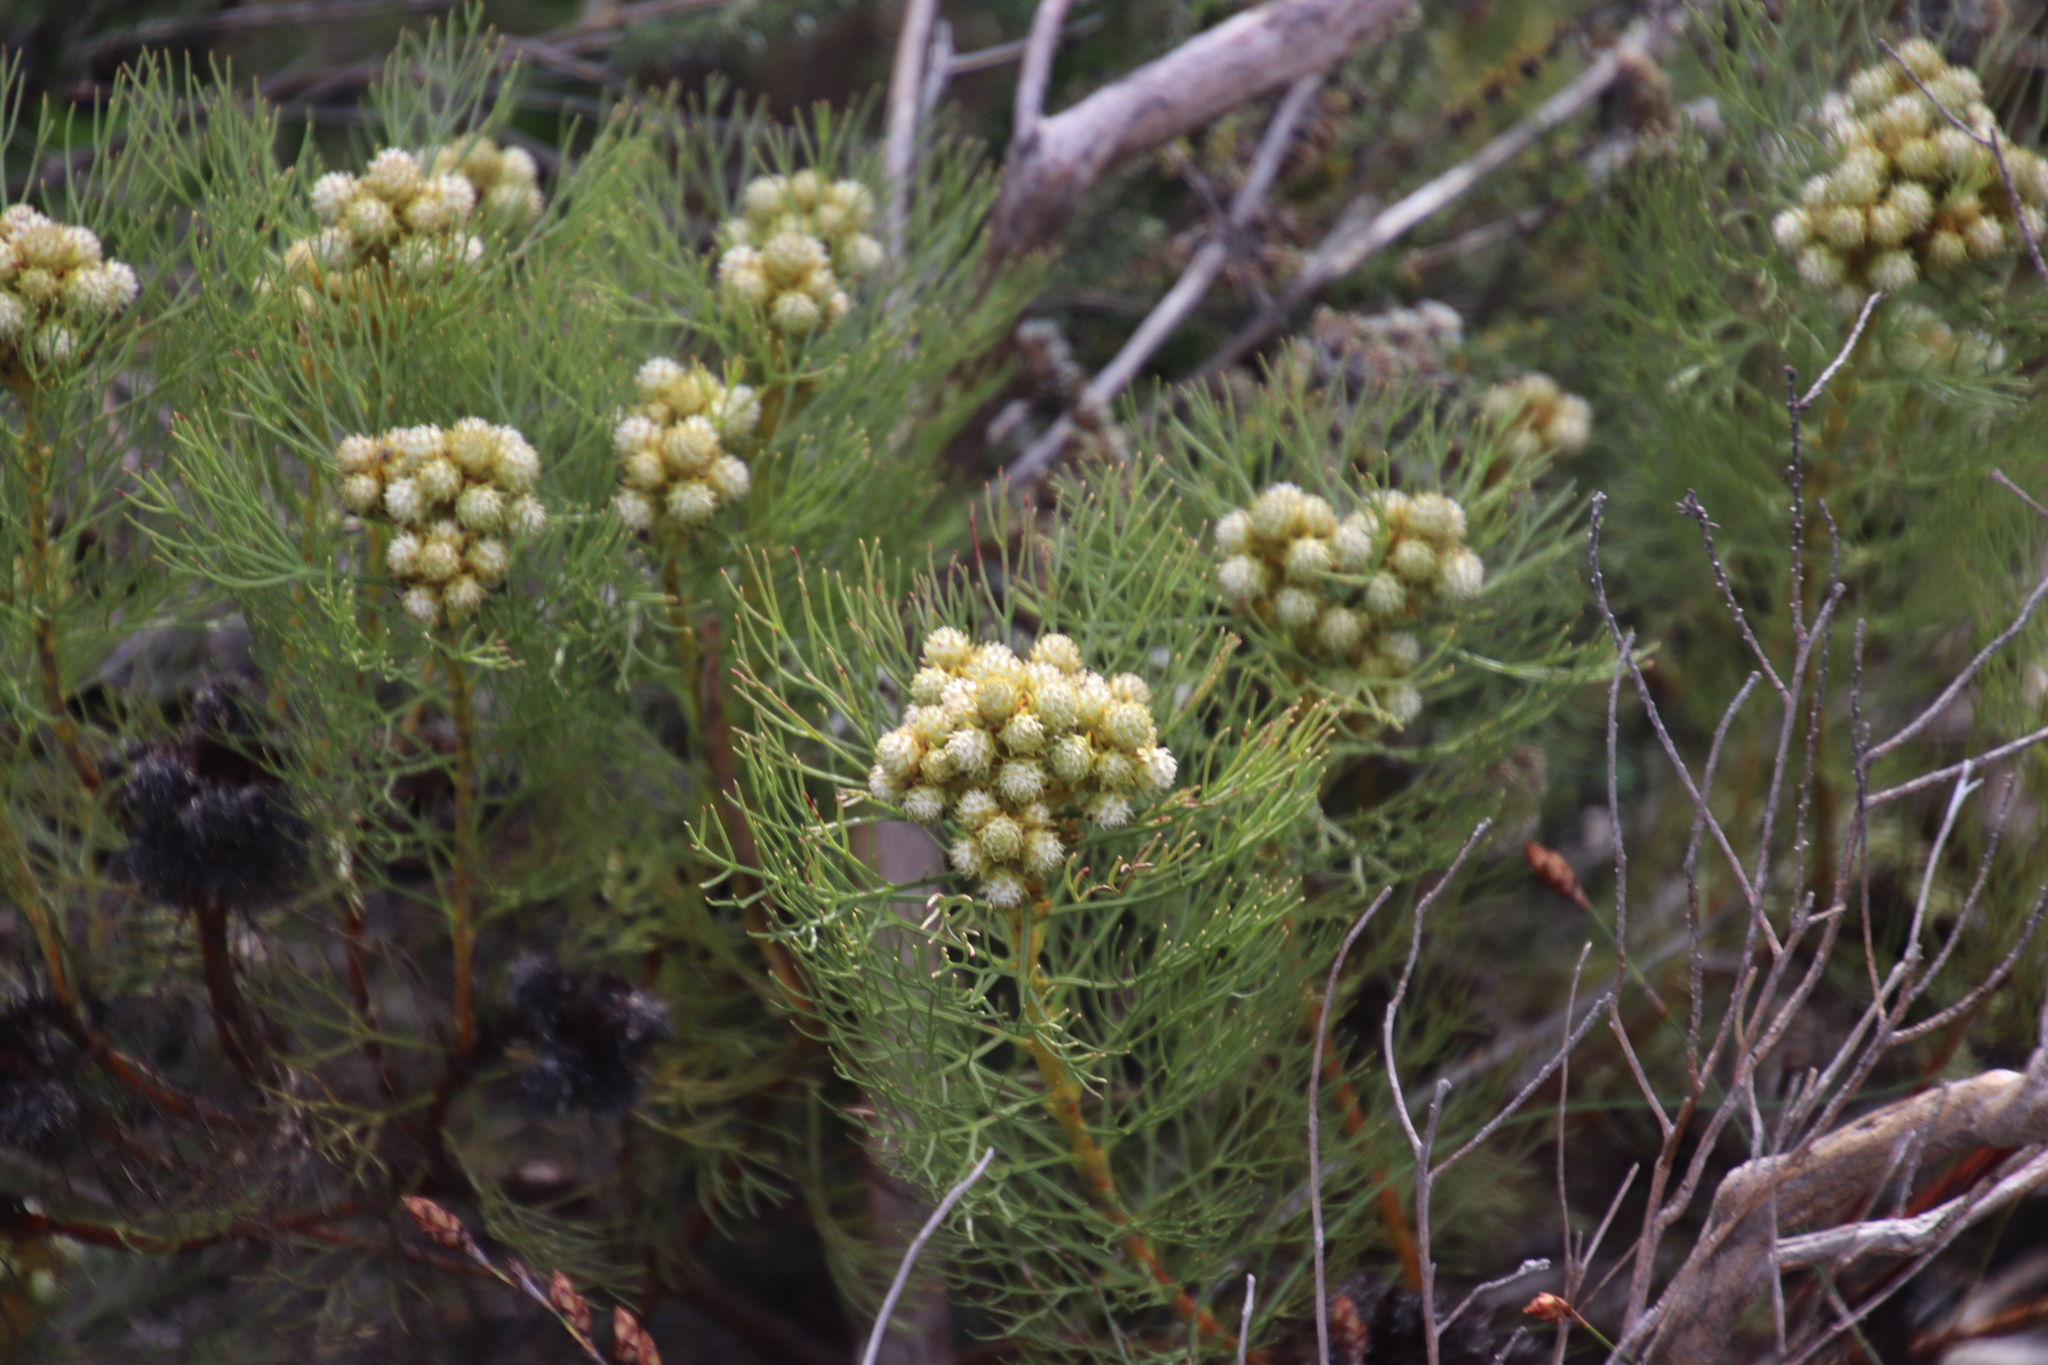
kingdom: Plantae
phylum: Tracheophyta
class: Magnoliopsida
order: Proteales
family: Proteaceae
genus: Serruria
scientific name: Serruria glomerata
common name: Cluster spiderhead
